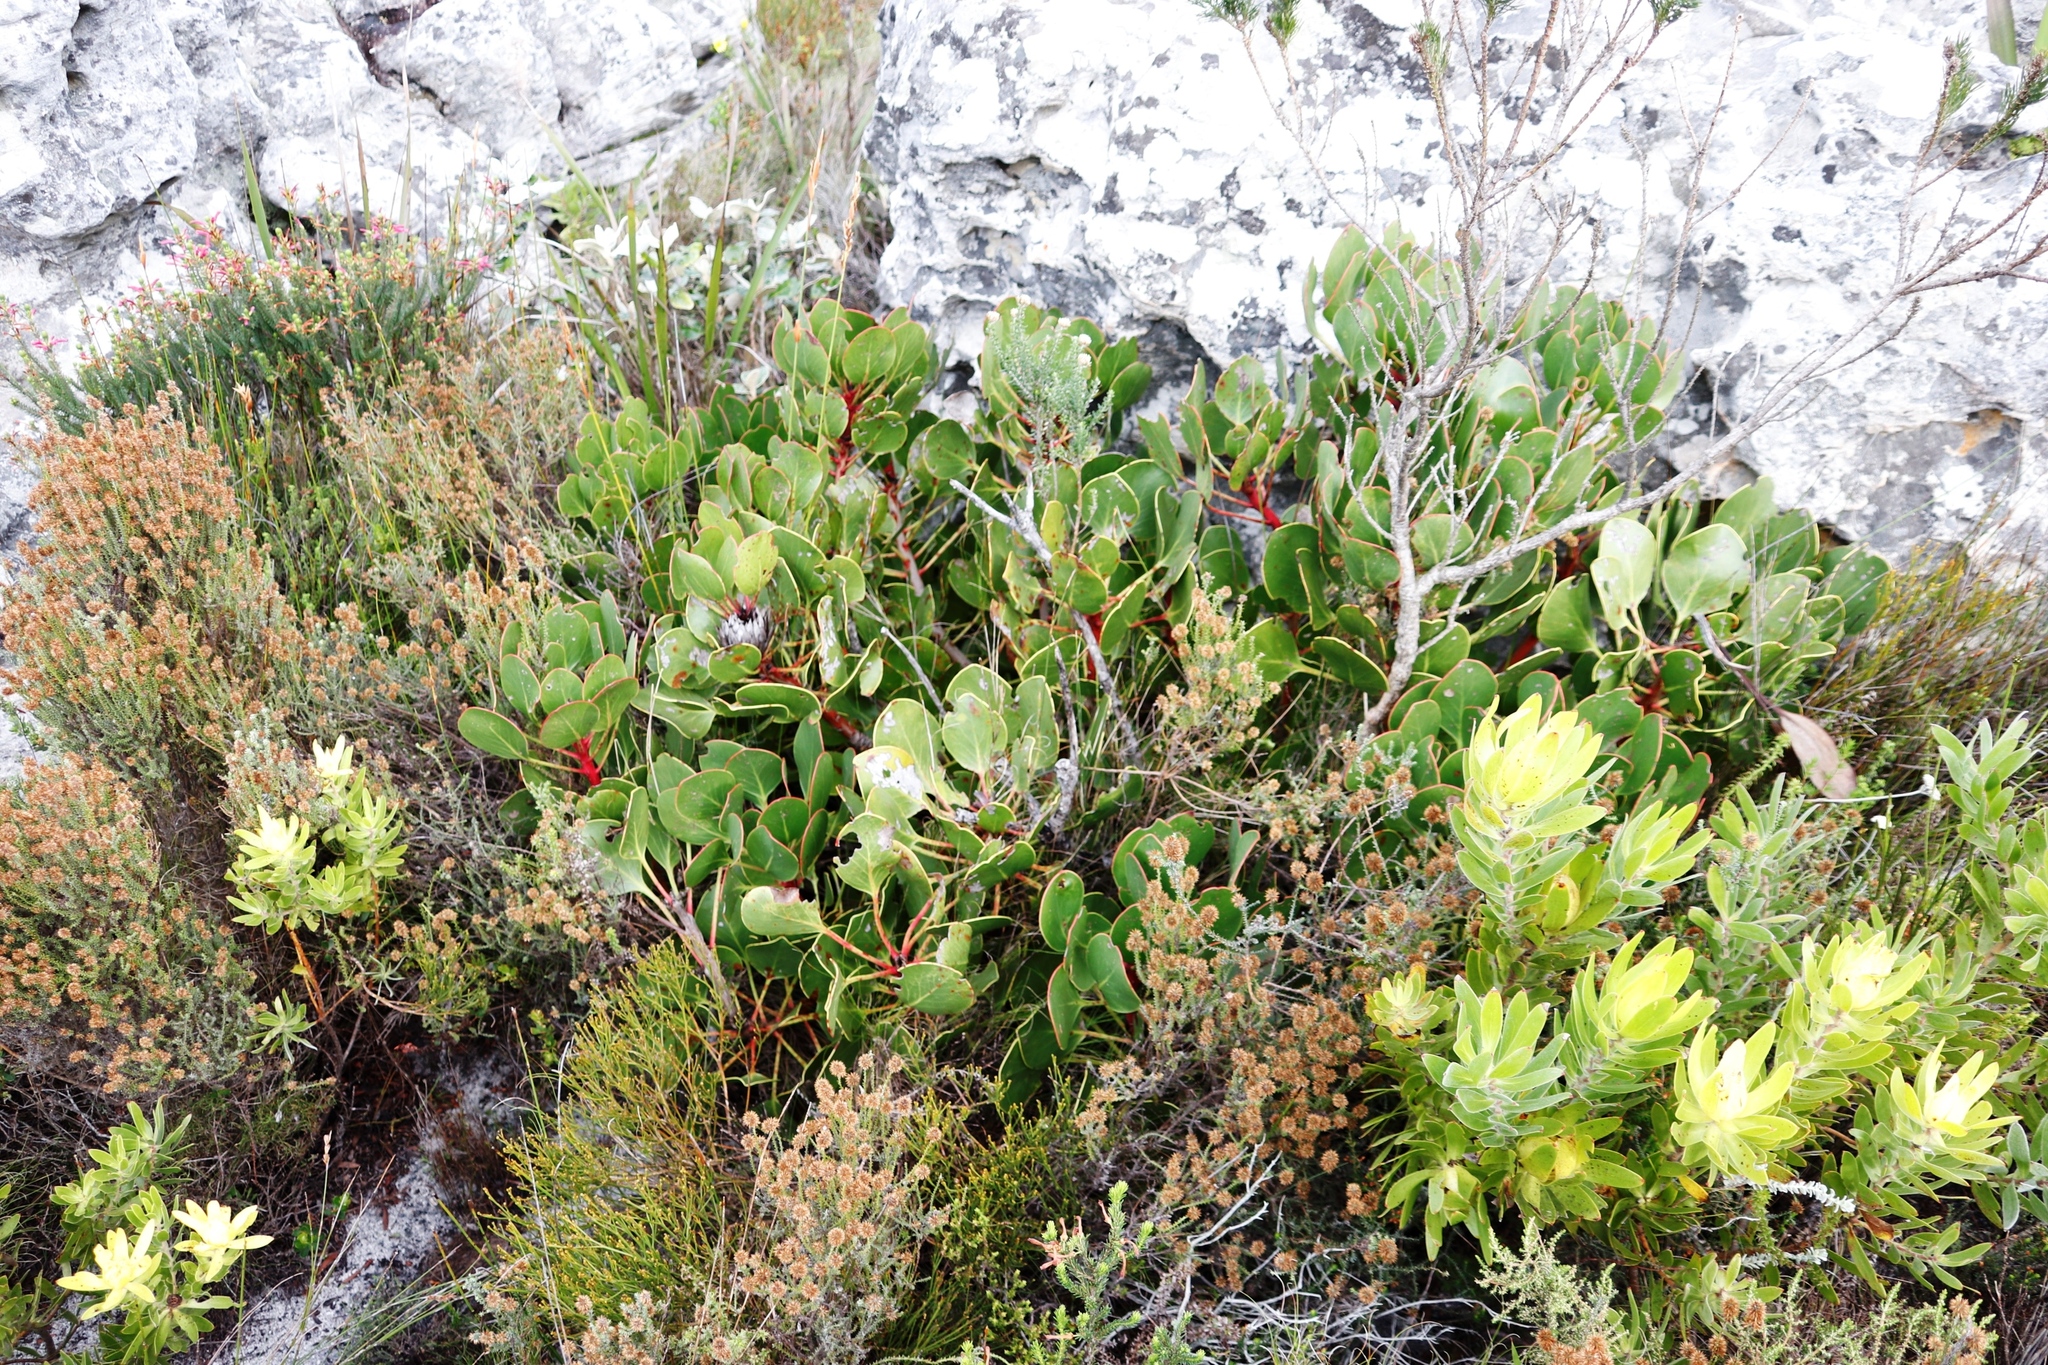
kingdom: Plantae
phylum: Tracheophyta
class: Magnoliopsida
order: Proteales
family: Proteaceae
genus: Protea
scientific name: Protea cynaroides
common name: King protea
